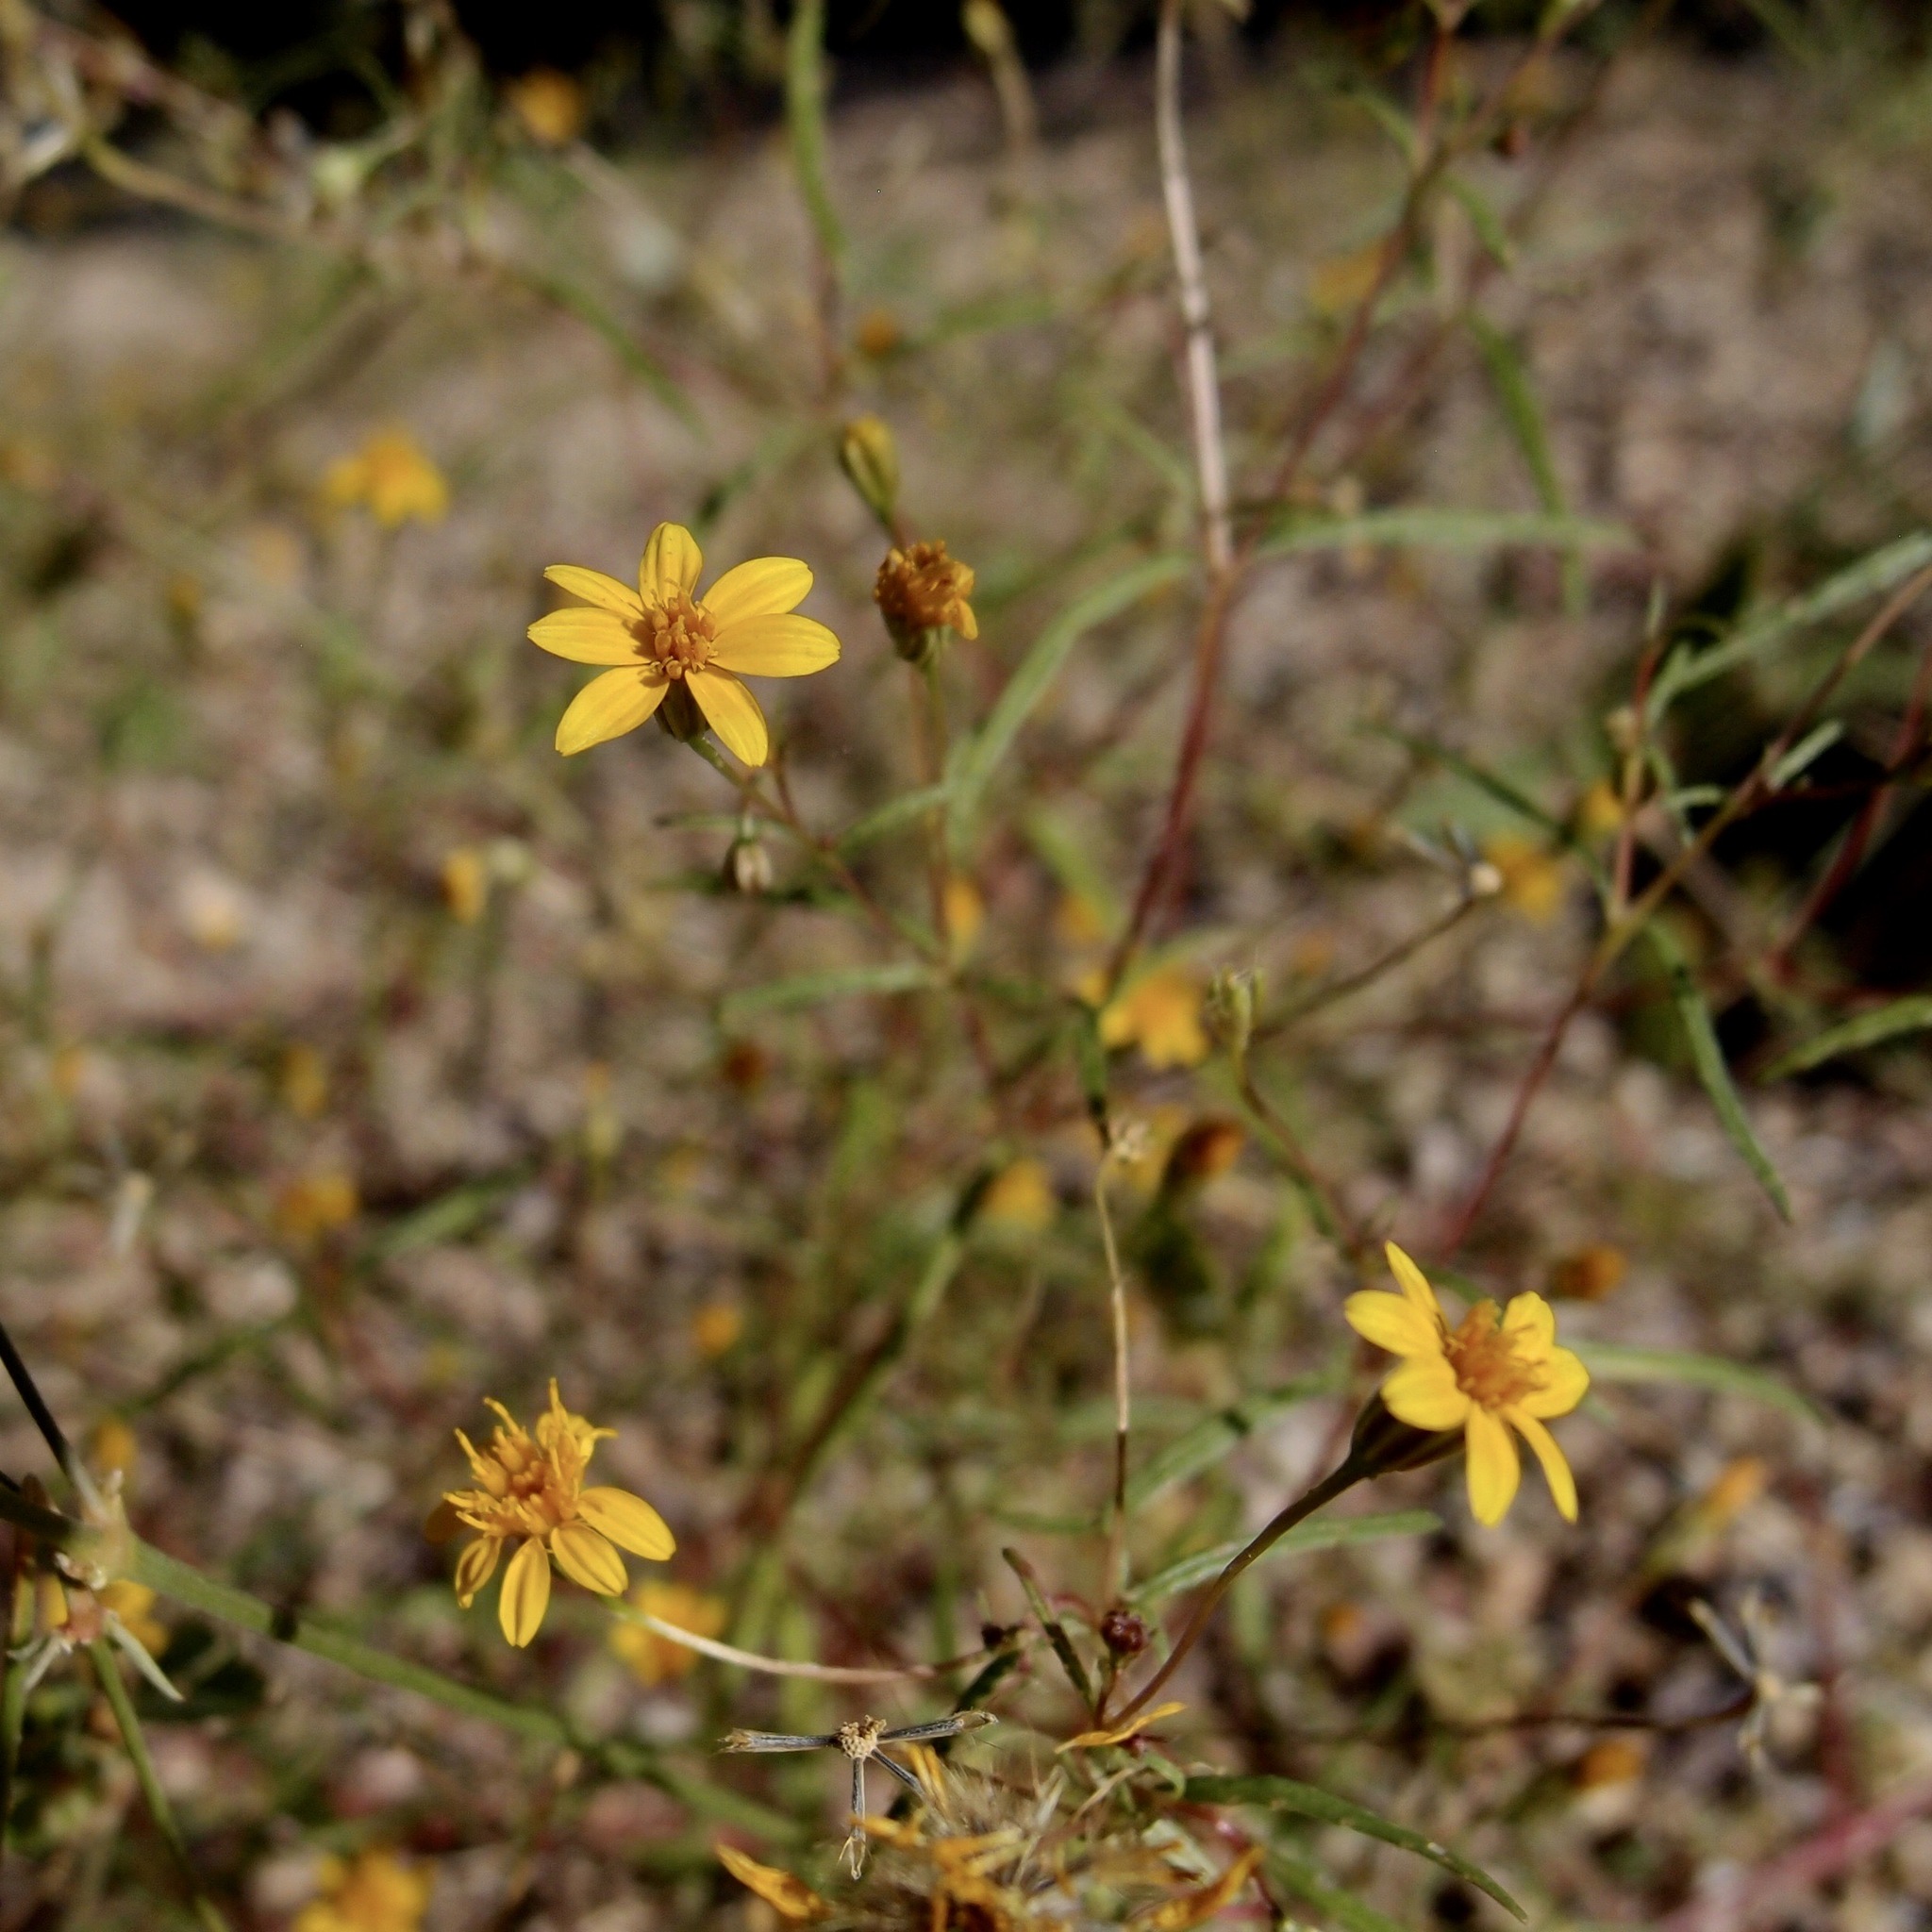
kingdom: Plantae
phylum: Tracheophyta
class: Magnoliopsida
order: Asterales
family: Asteraceae
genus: Pectis
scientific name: Pectis rusbyi
